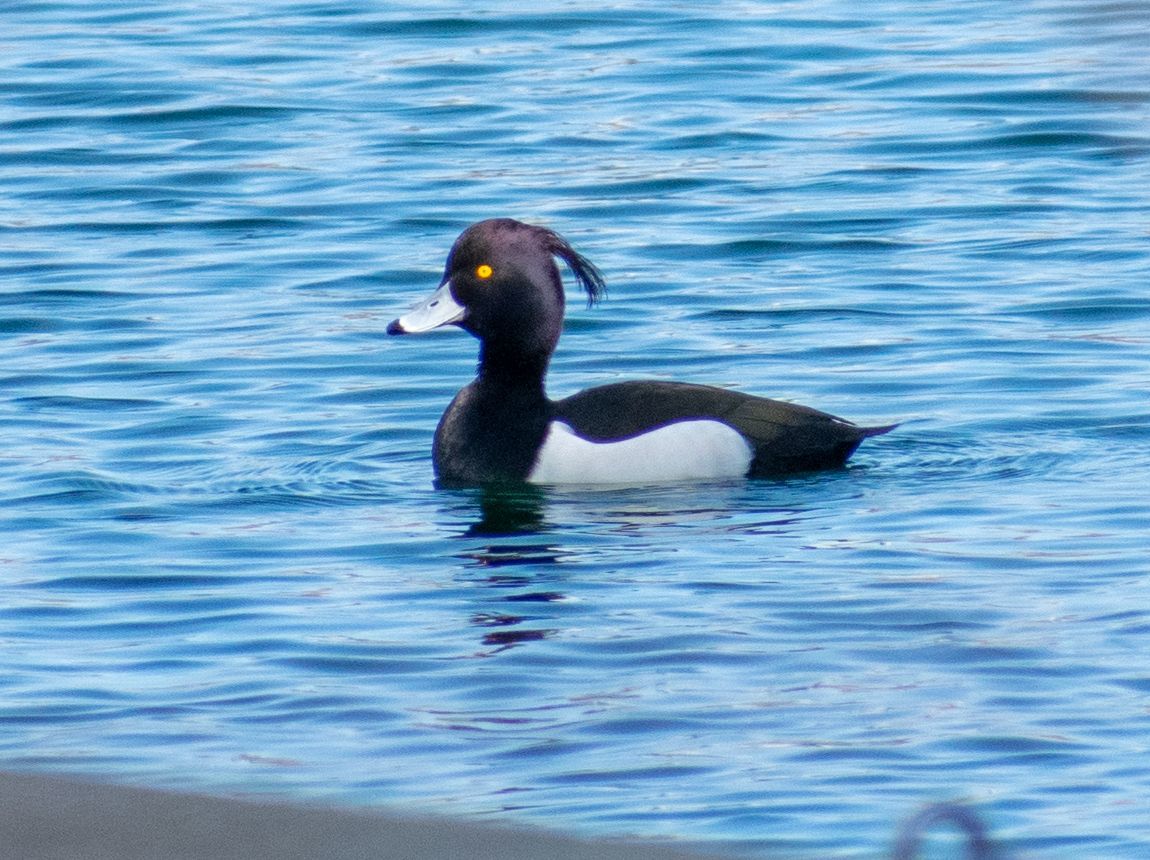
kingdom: Animalia
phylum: Chordata
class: Aves
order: Anseriformes
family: Anatidae
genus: Aythya
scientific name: Aythya fuligula
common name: Tufted duck
